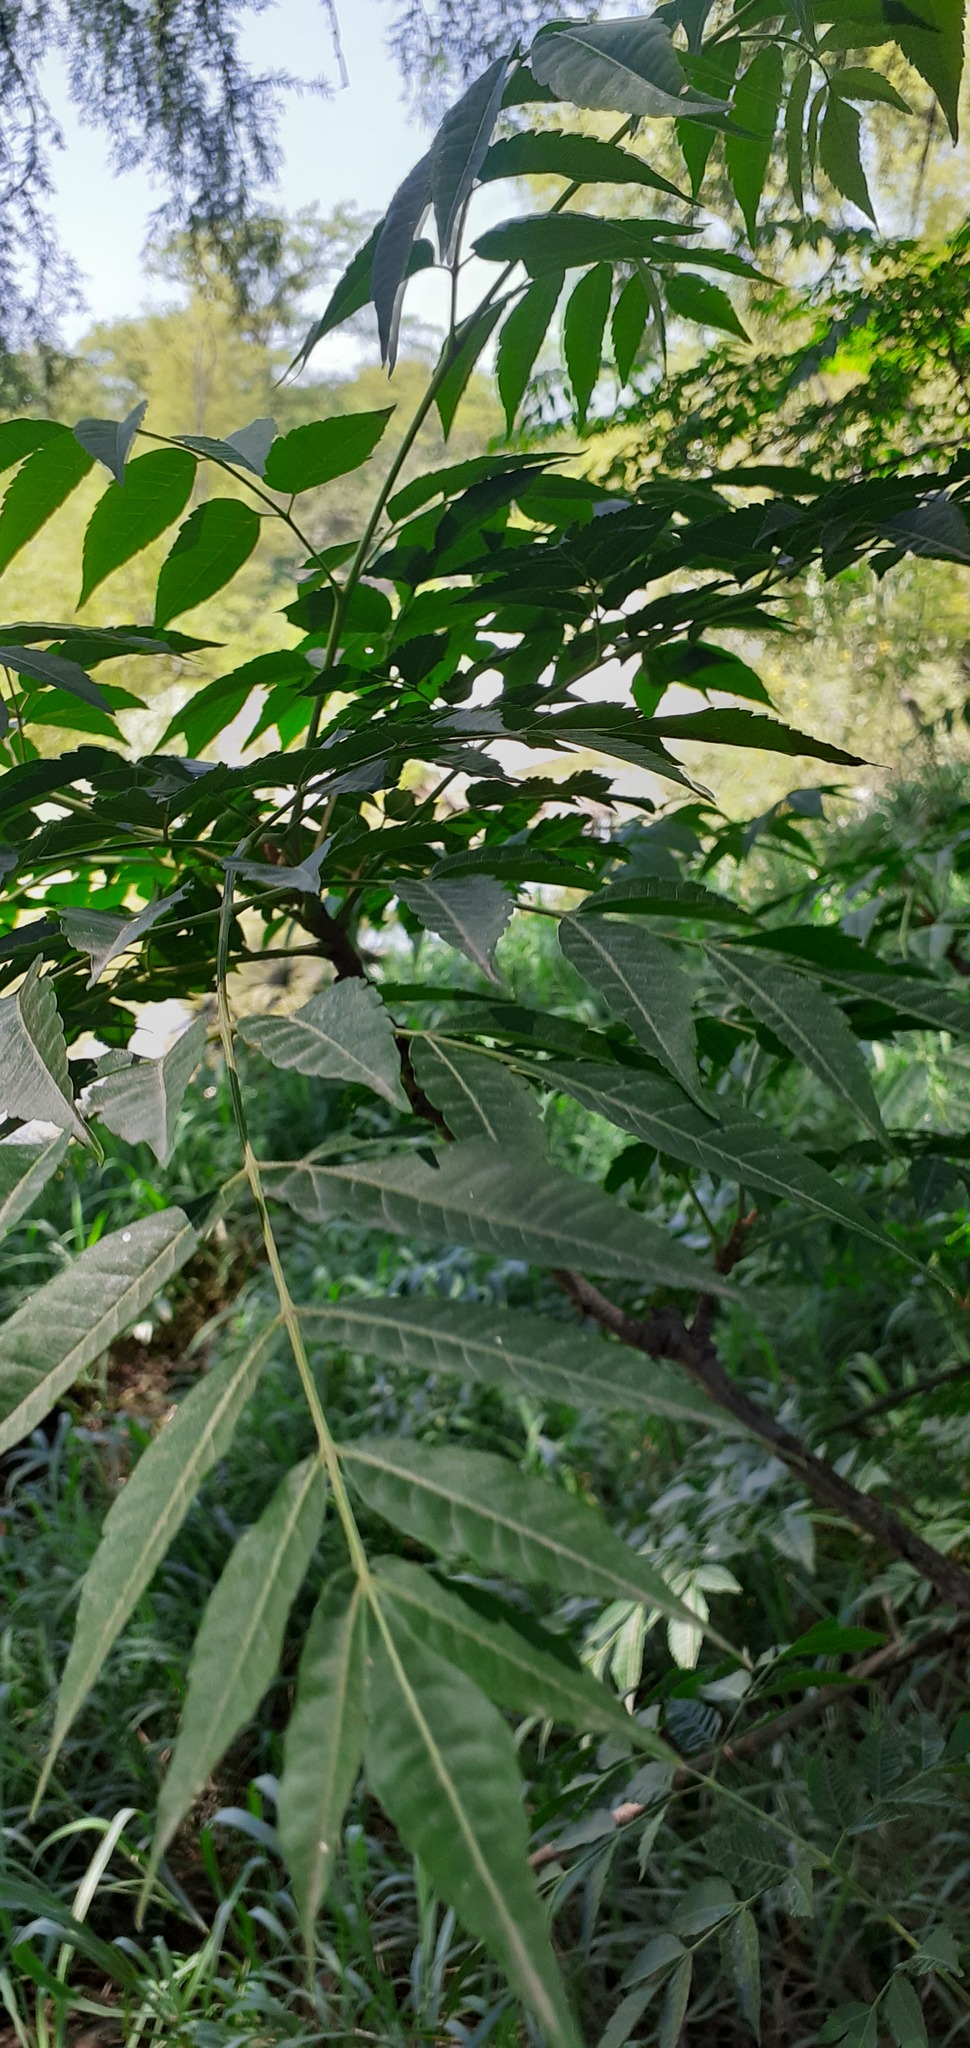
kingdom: Plantae
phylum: Tracheophyta
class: Magnoliopsida
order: Sapindales
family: Meliaceae
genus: Azadirachta
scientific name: Azadirachta indica
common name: Neem
